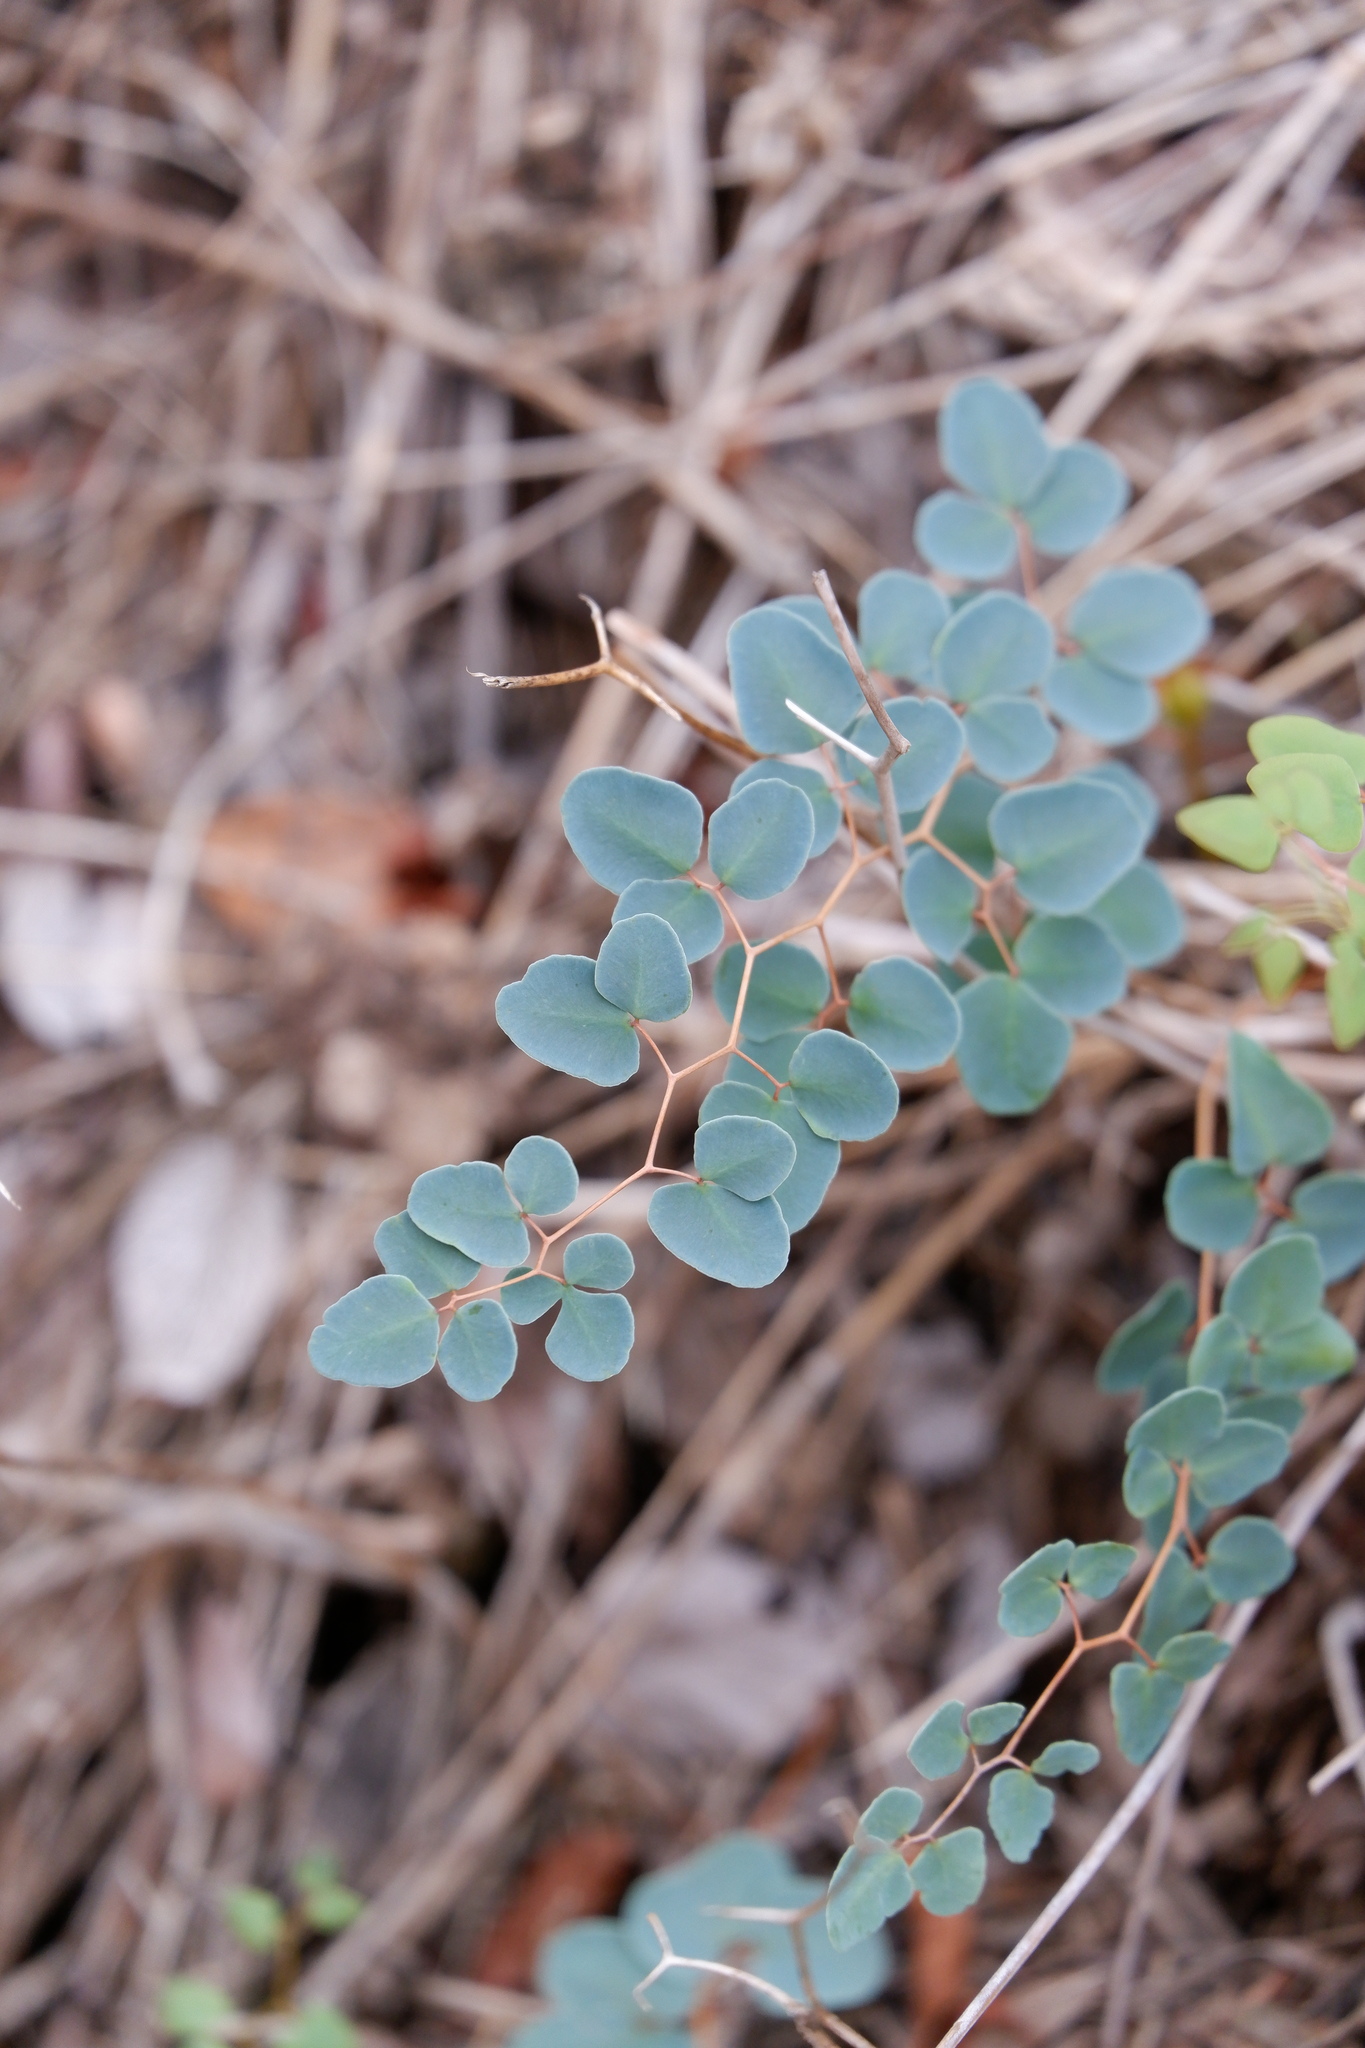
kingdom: Plantae
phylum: Tracheophyta
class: Polypodiopsida
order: Polypodiales
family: Pteridaceae
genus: Pellaea
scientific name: Pellaea ovata
